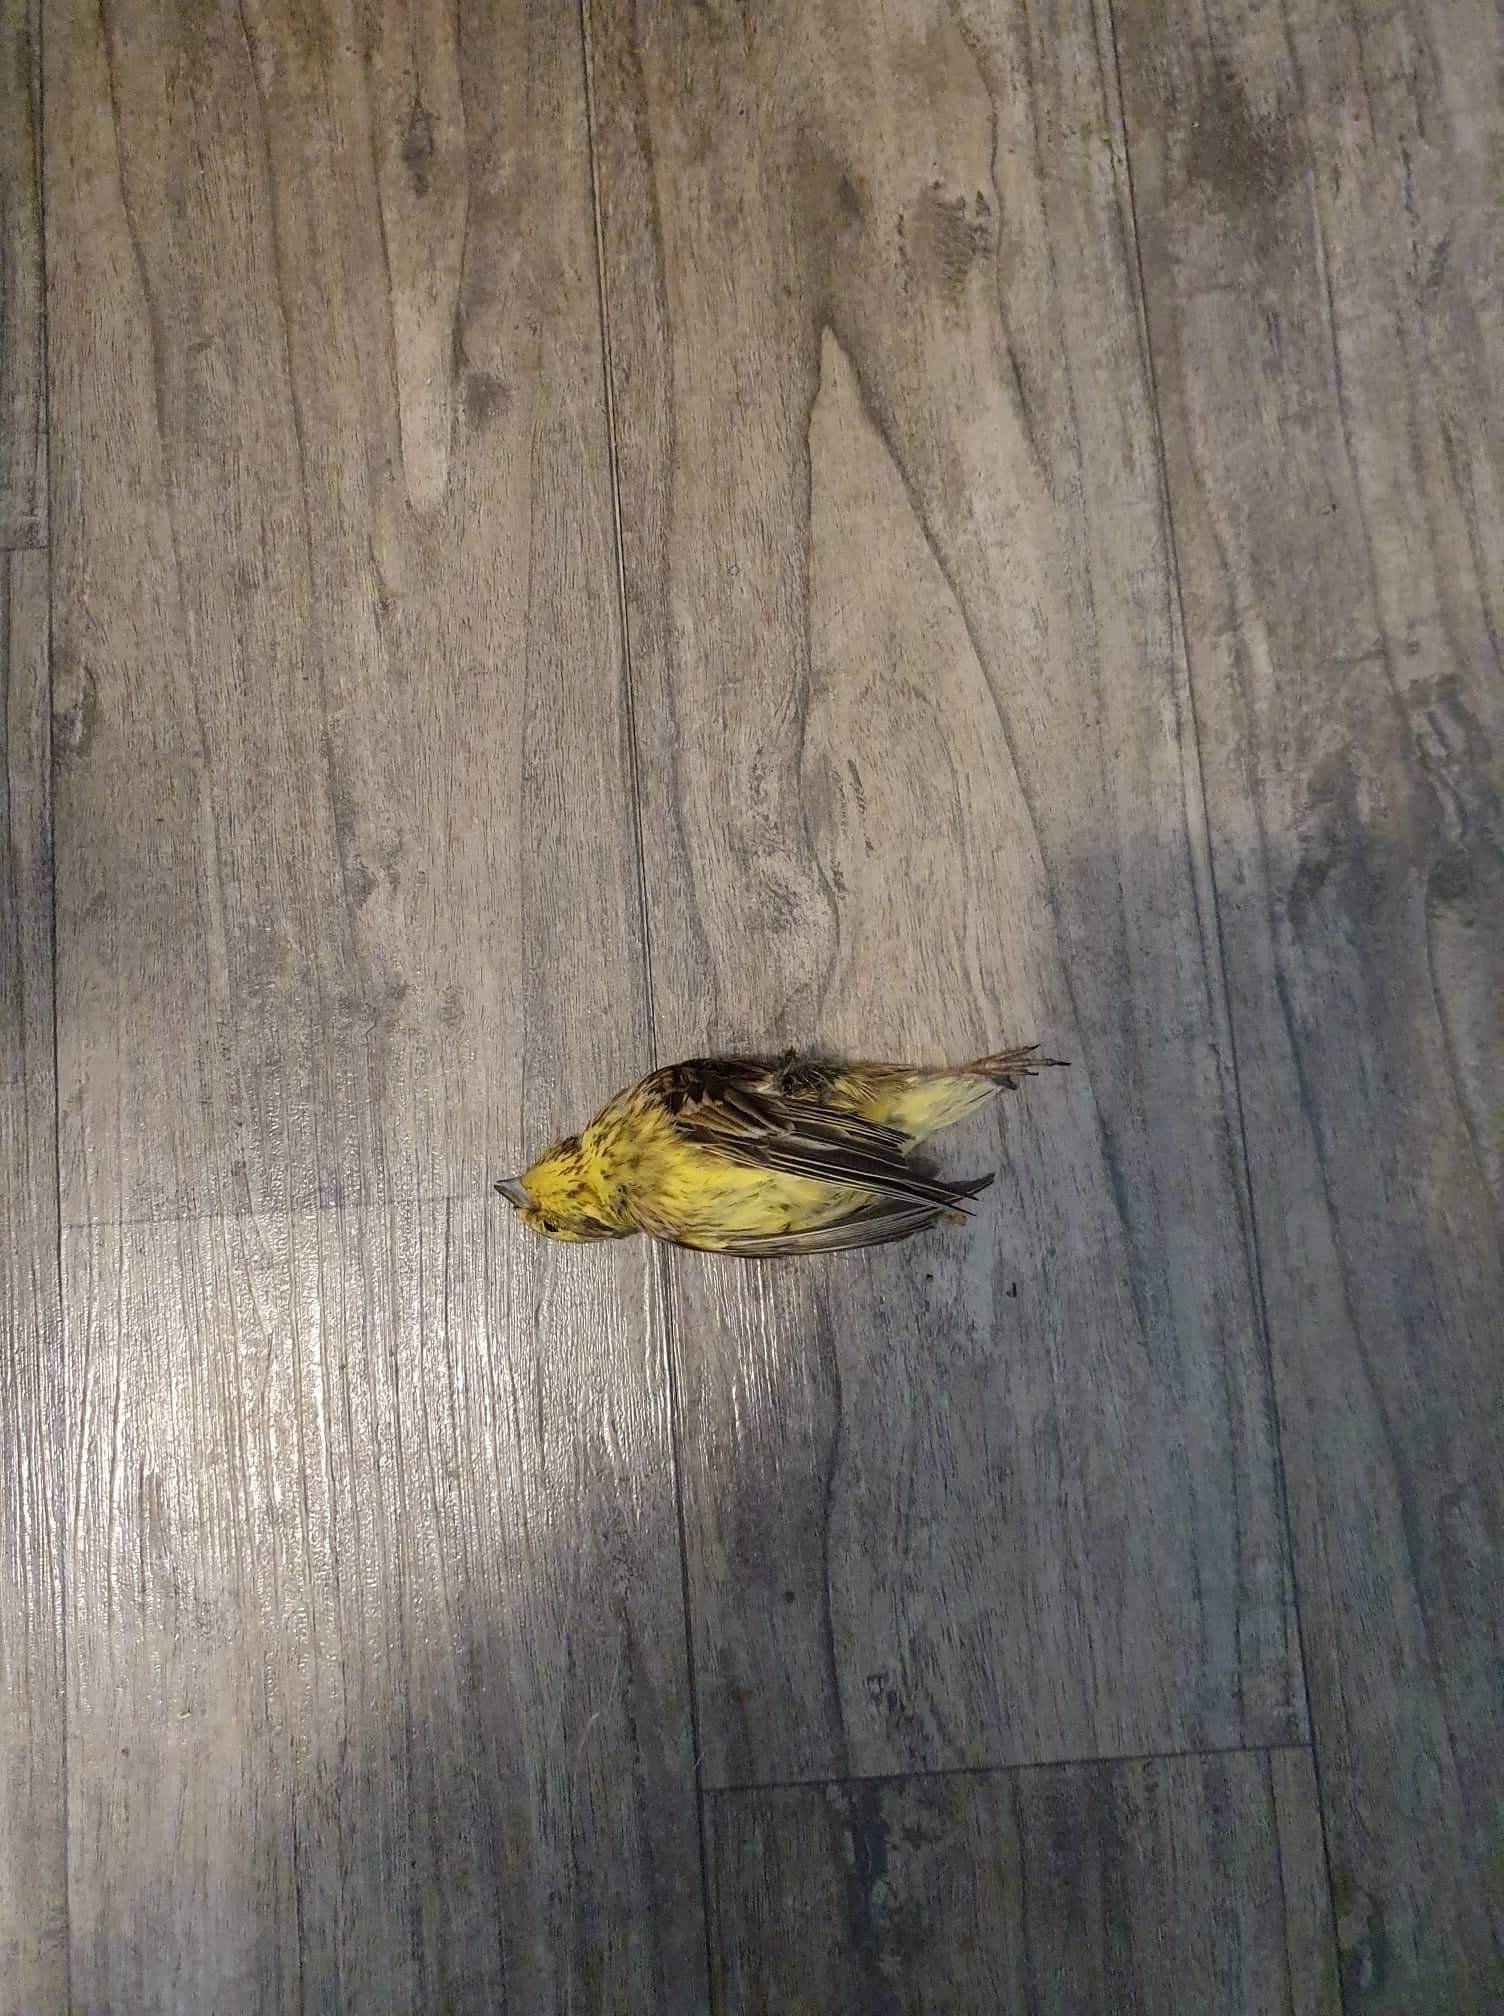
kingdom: Animalia
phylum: Chordata
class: Aves
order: Passeriformes
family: Emberizidae
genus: Emberiza
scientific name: Emberiza citrinella
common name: Yellowhammer
